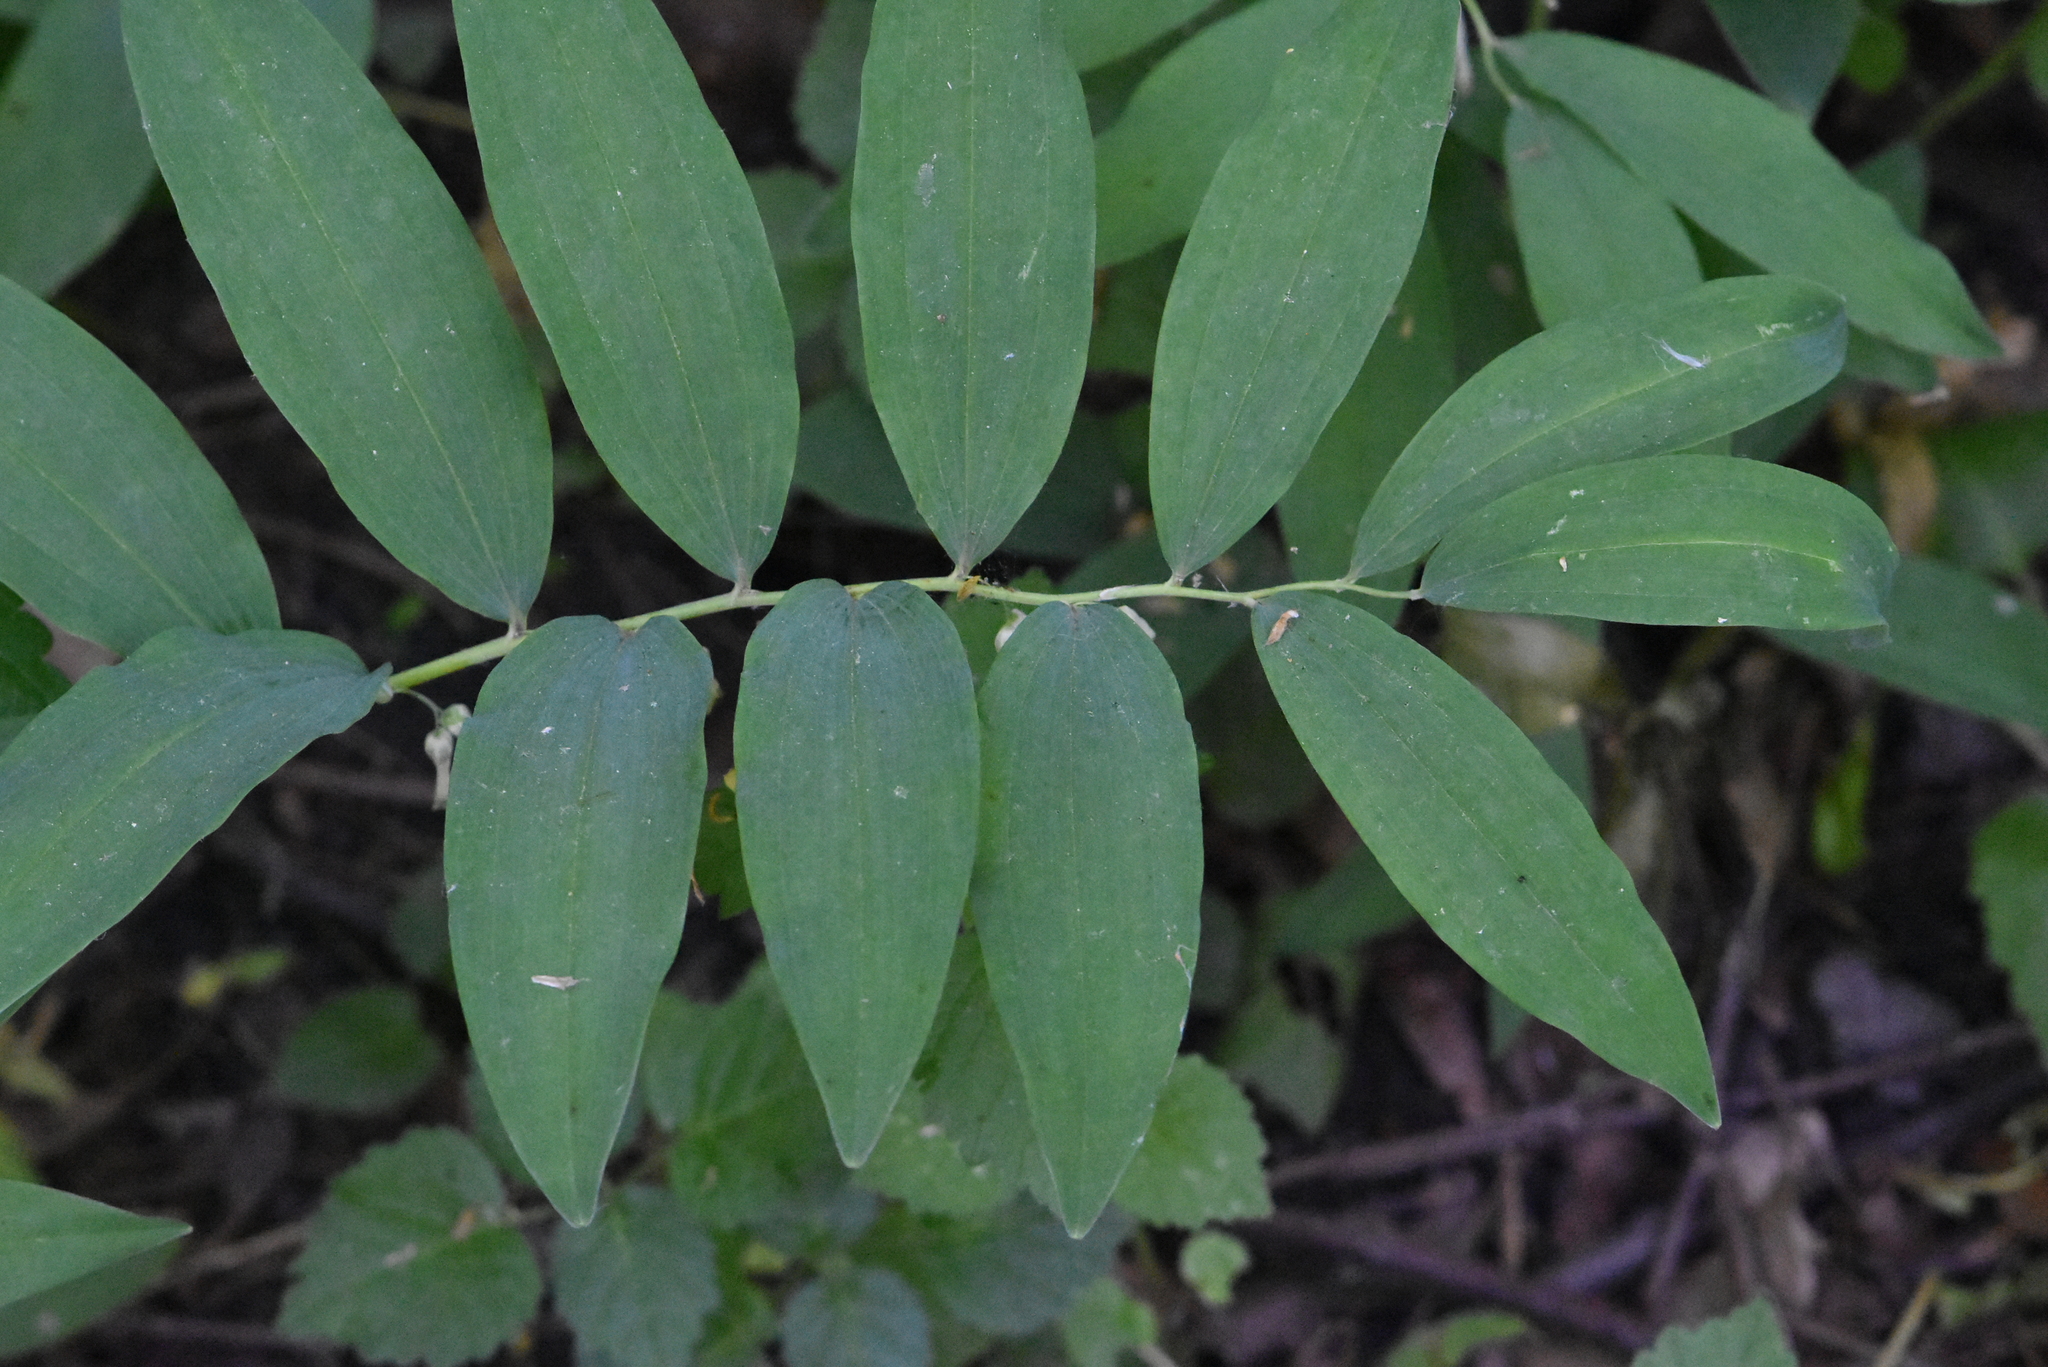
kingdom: Plantae
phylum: Tracheophyta
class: Liliopsida
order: Asparagales
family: Asparagaceae
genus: Polygonatum
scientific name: Polygonatum multiflorum
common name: Solomon's-seal
